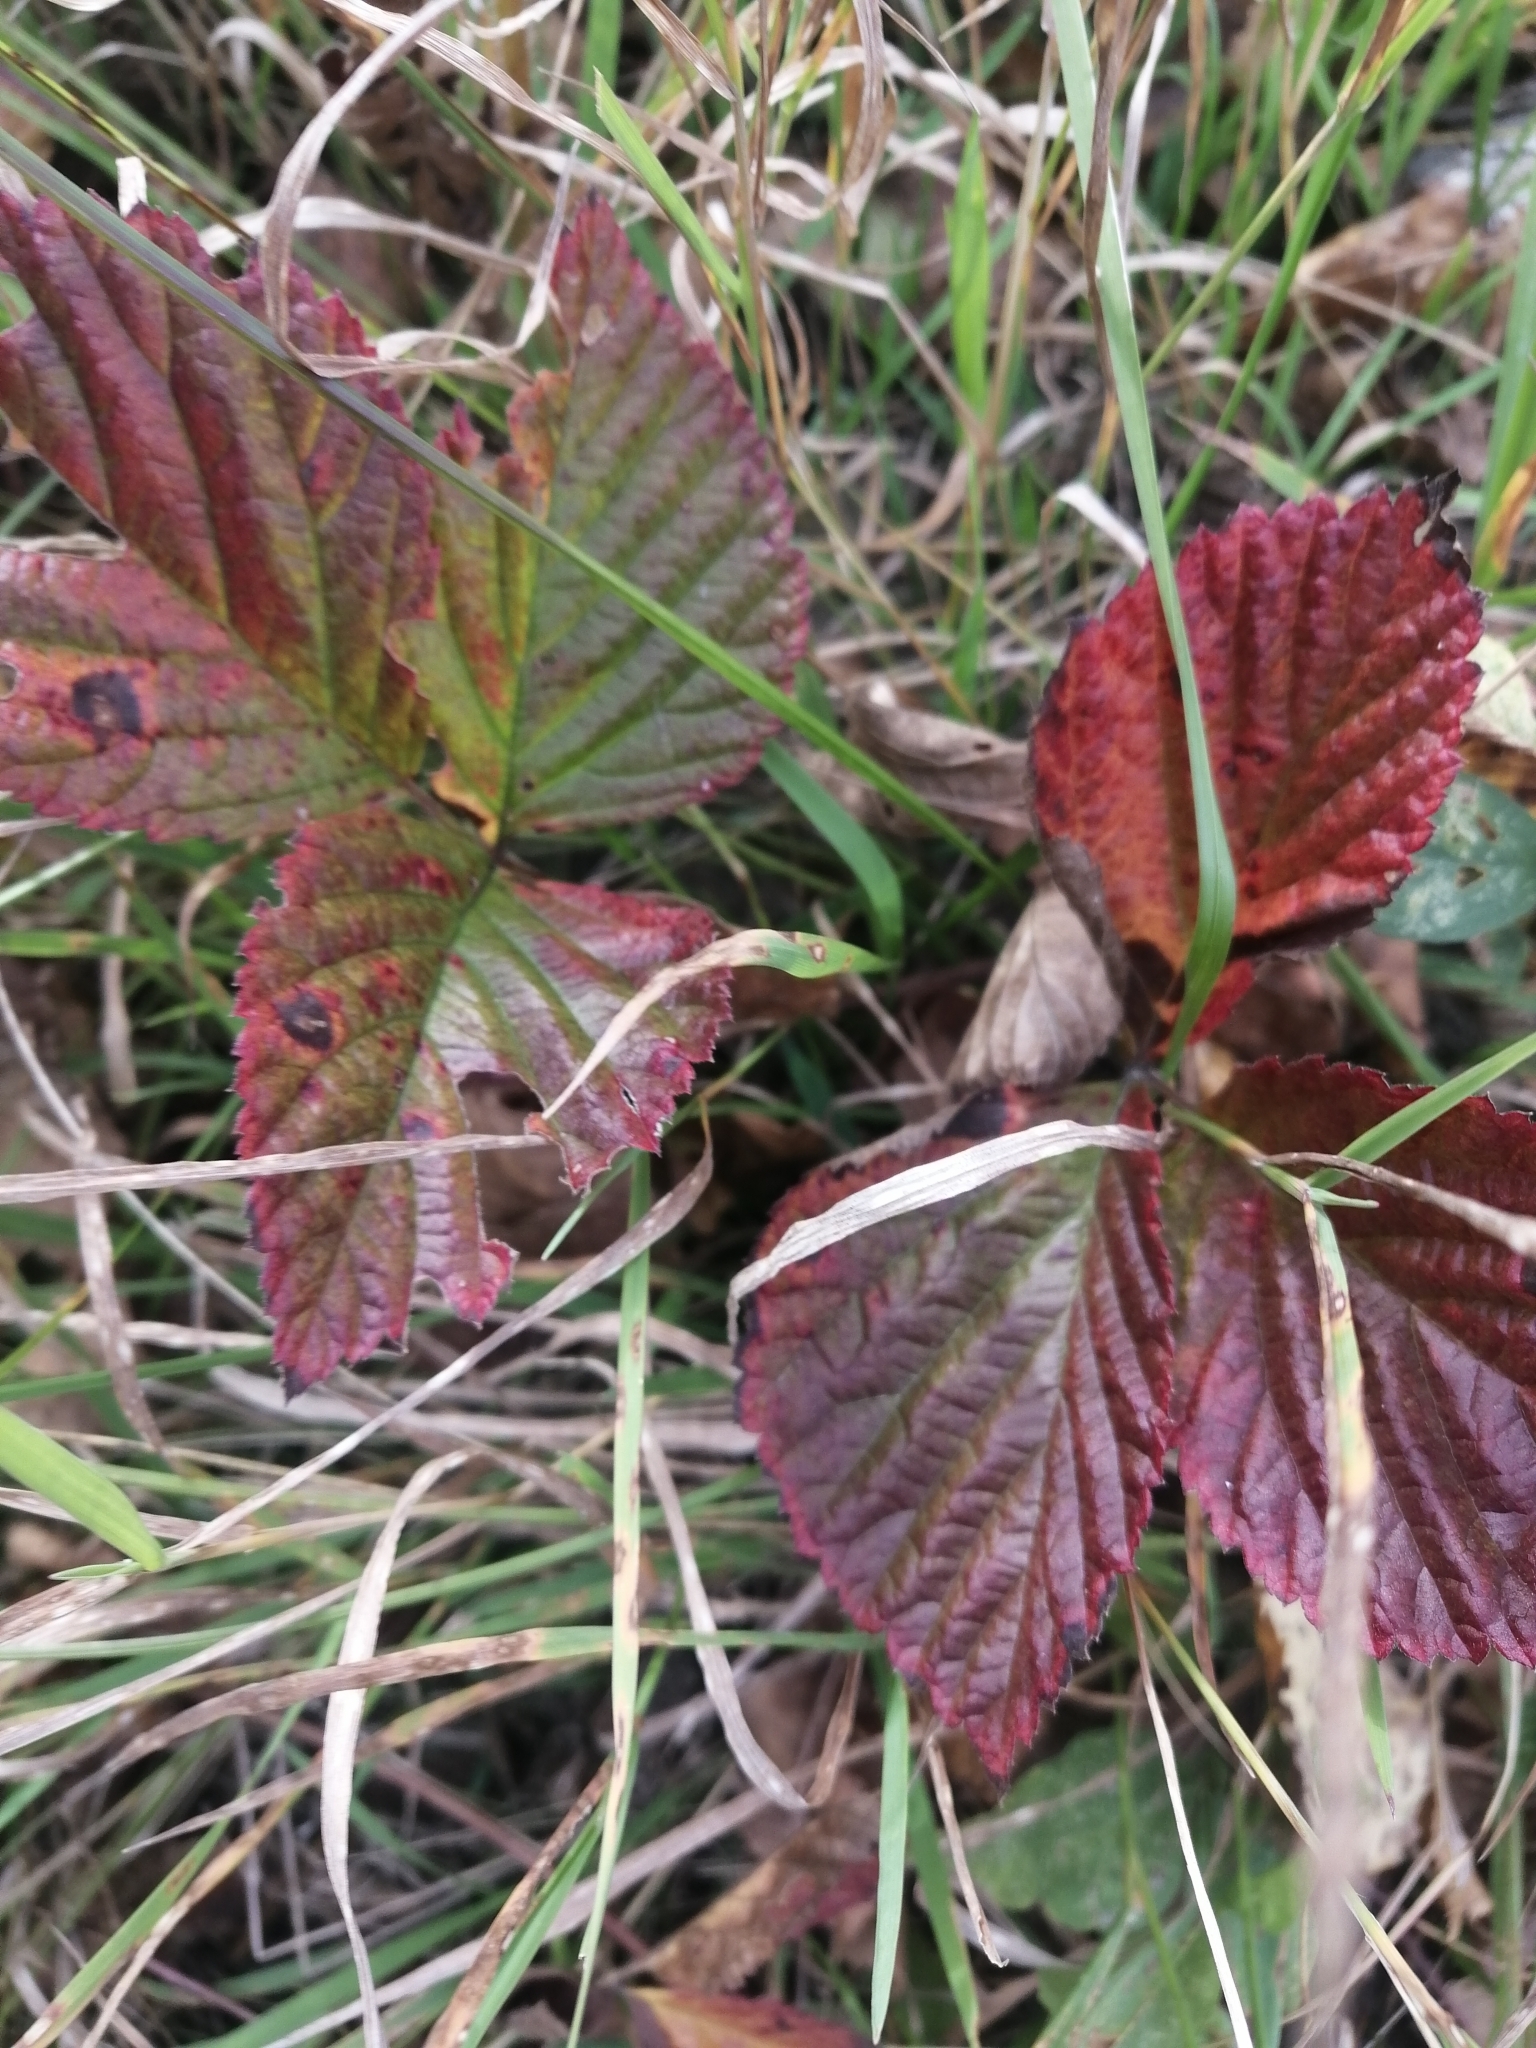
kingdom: Plantae
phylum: Tracheophyta
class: Magnoliopsida
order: Rosales
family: Rosaceae
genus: Rubus
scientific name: Rubus saxatilis
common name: Stone bramble
